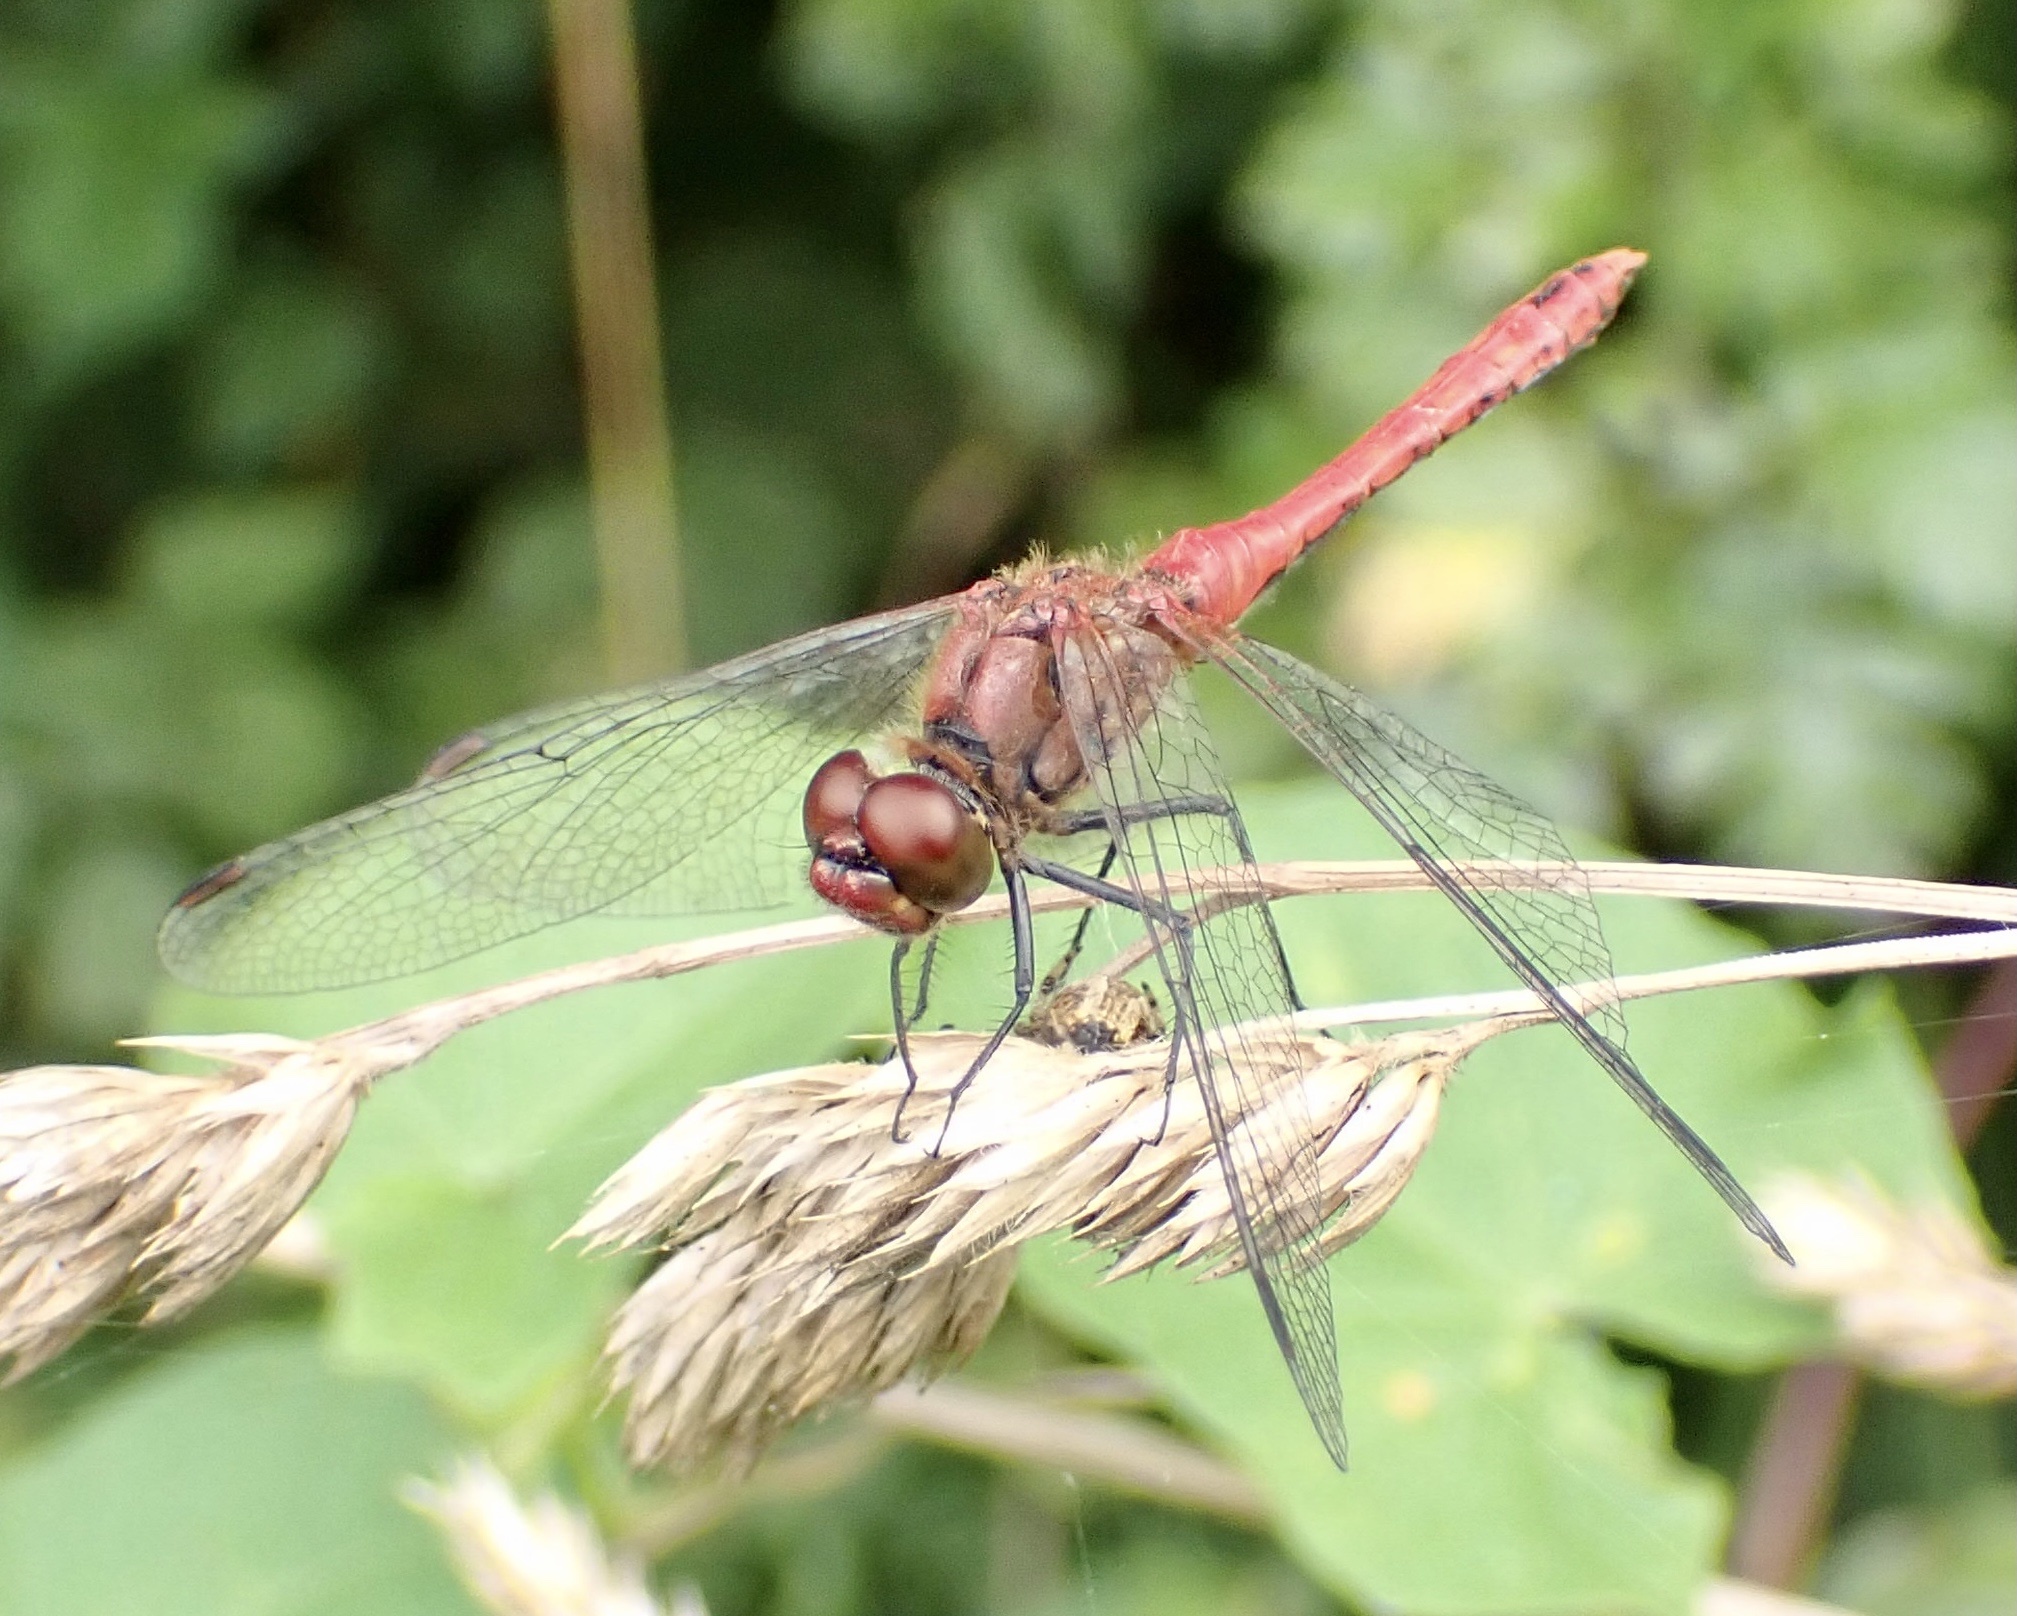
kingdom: Animalia
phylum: Arthropoda
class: Insecta
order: Odonata
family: Libellulidae
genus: Sympetrum
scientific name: Sympetrum sanguineum
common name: Ruddy darter
